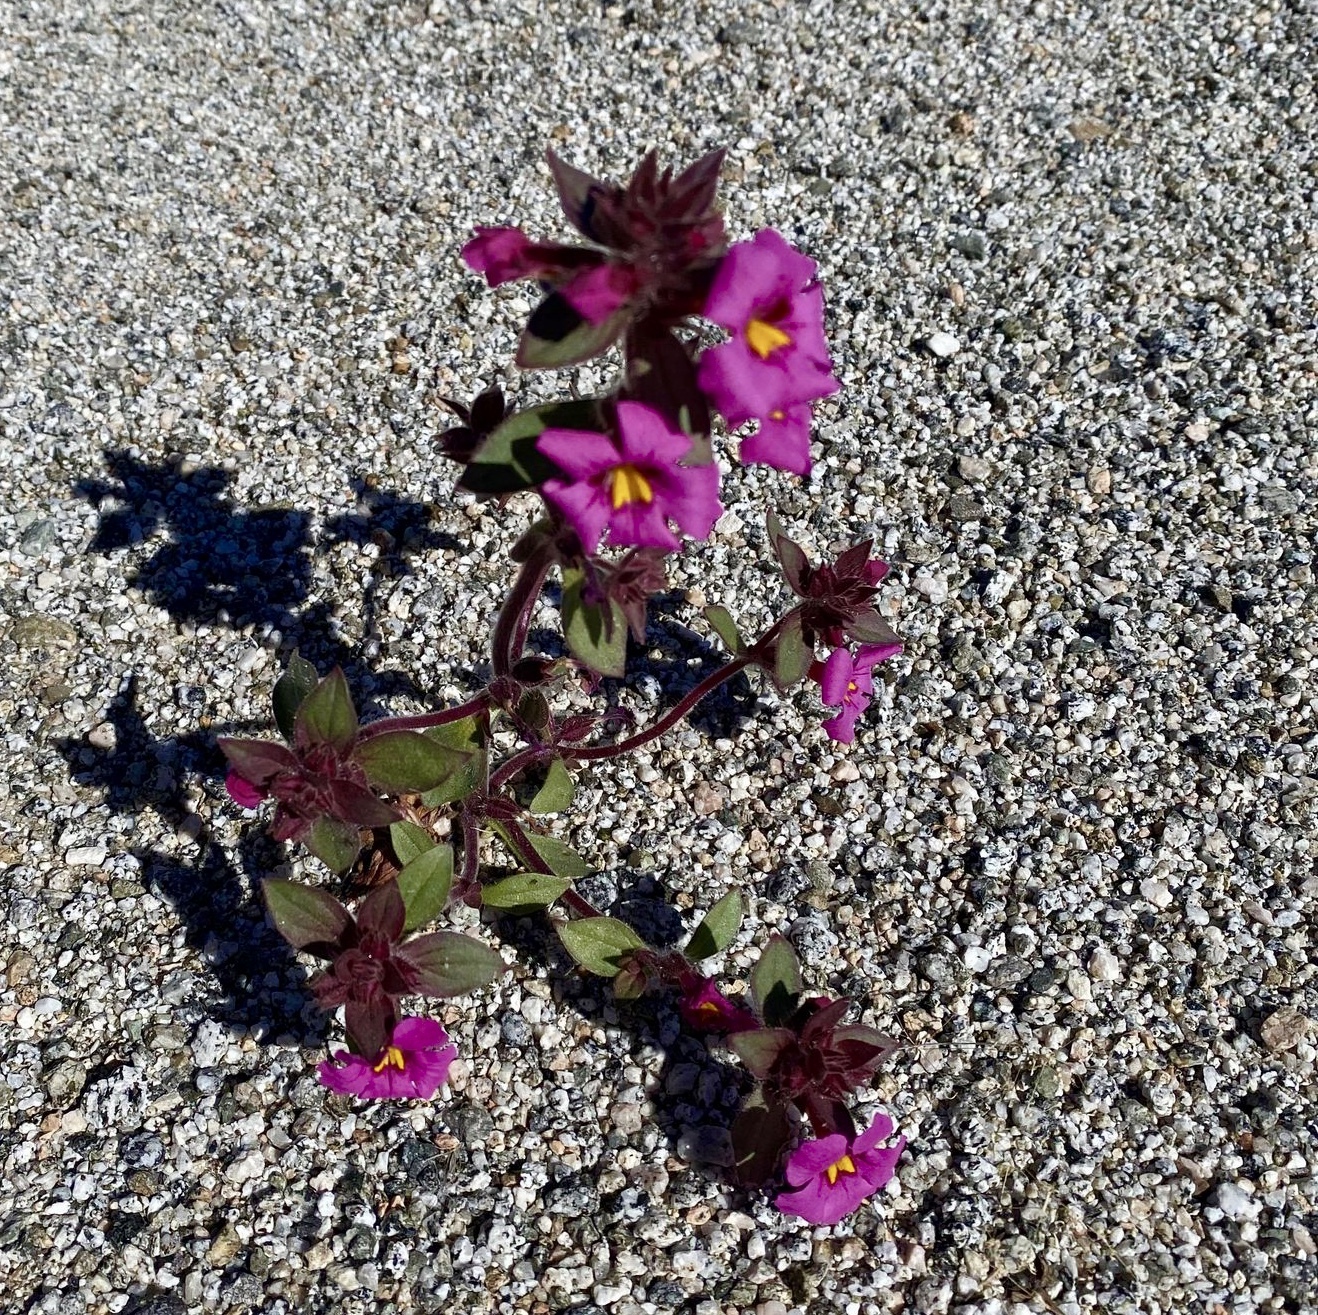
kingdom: Plantae
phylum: Tracheophyta
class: Magnoliopsida
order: Lamiales
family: Phrymaceae
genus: Diplacus
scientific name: Diplacus bigelovii
